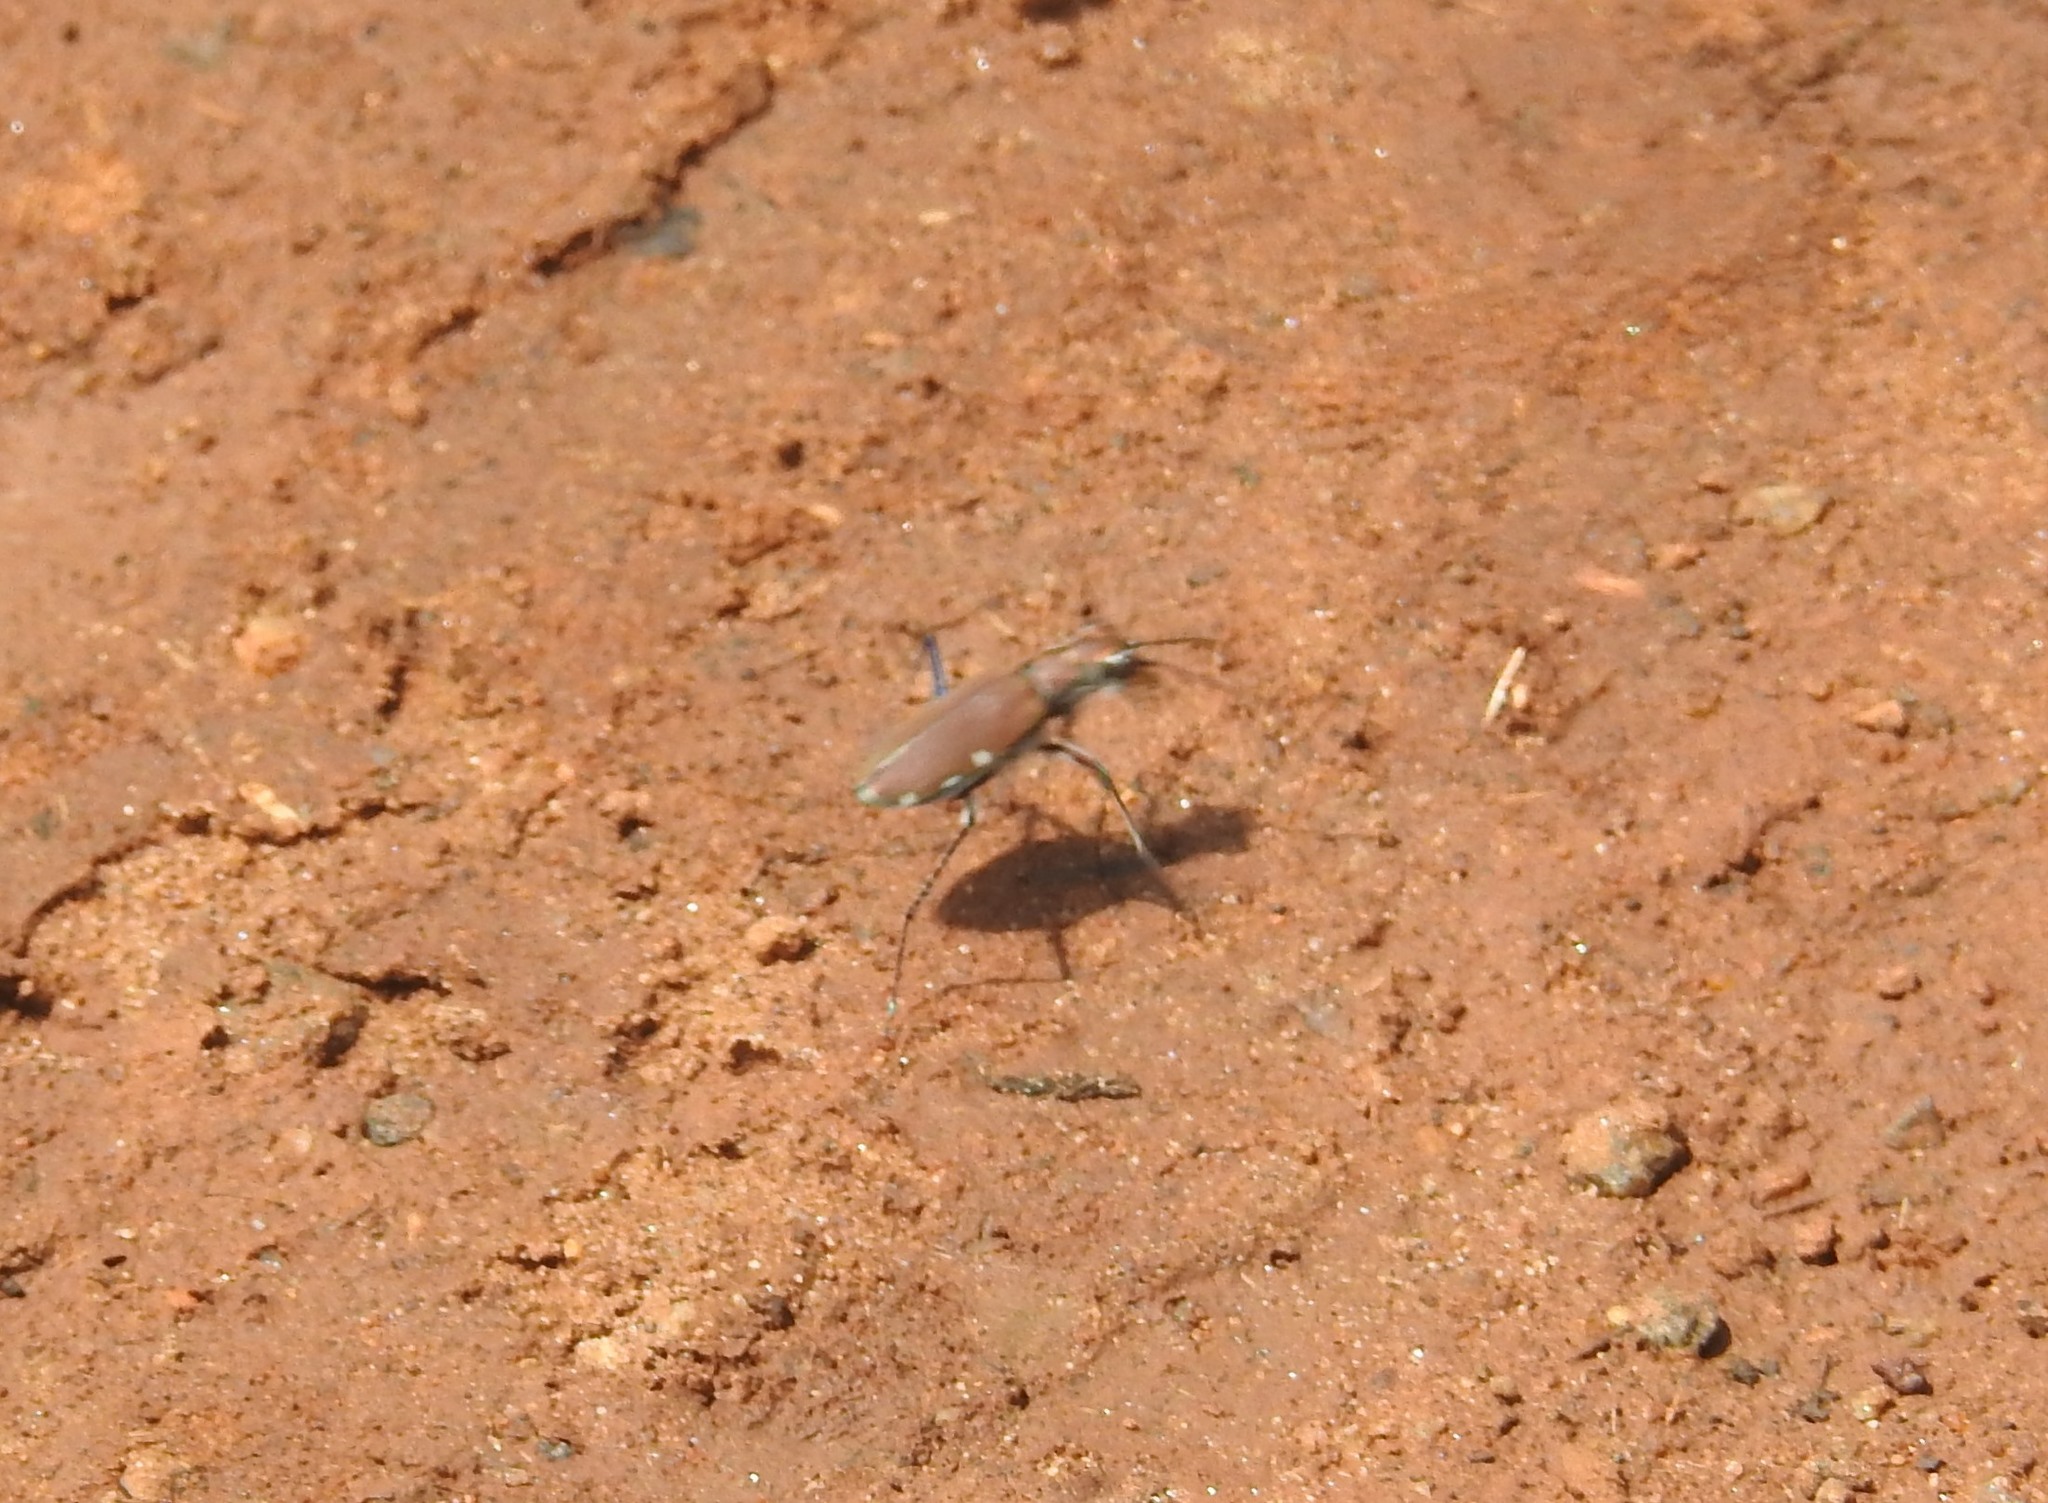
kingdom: Animalia
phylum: Arthropoda
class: Insecta
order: Coleoptera
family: Carabidae
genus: Cicindela
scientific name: Cicindela funerea
